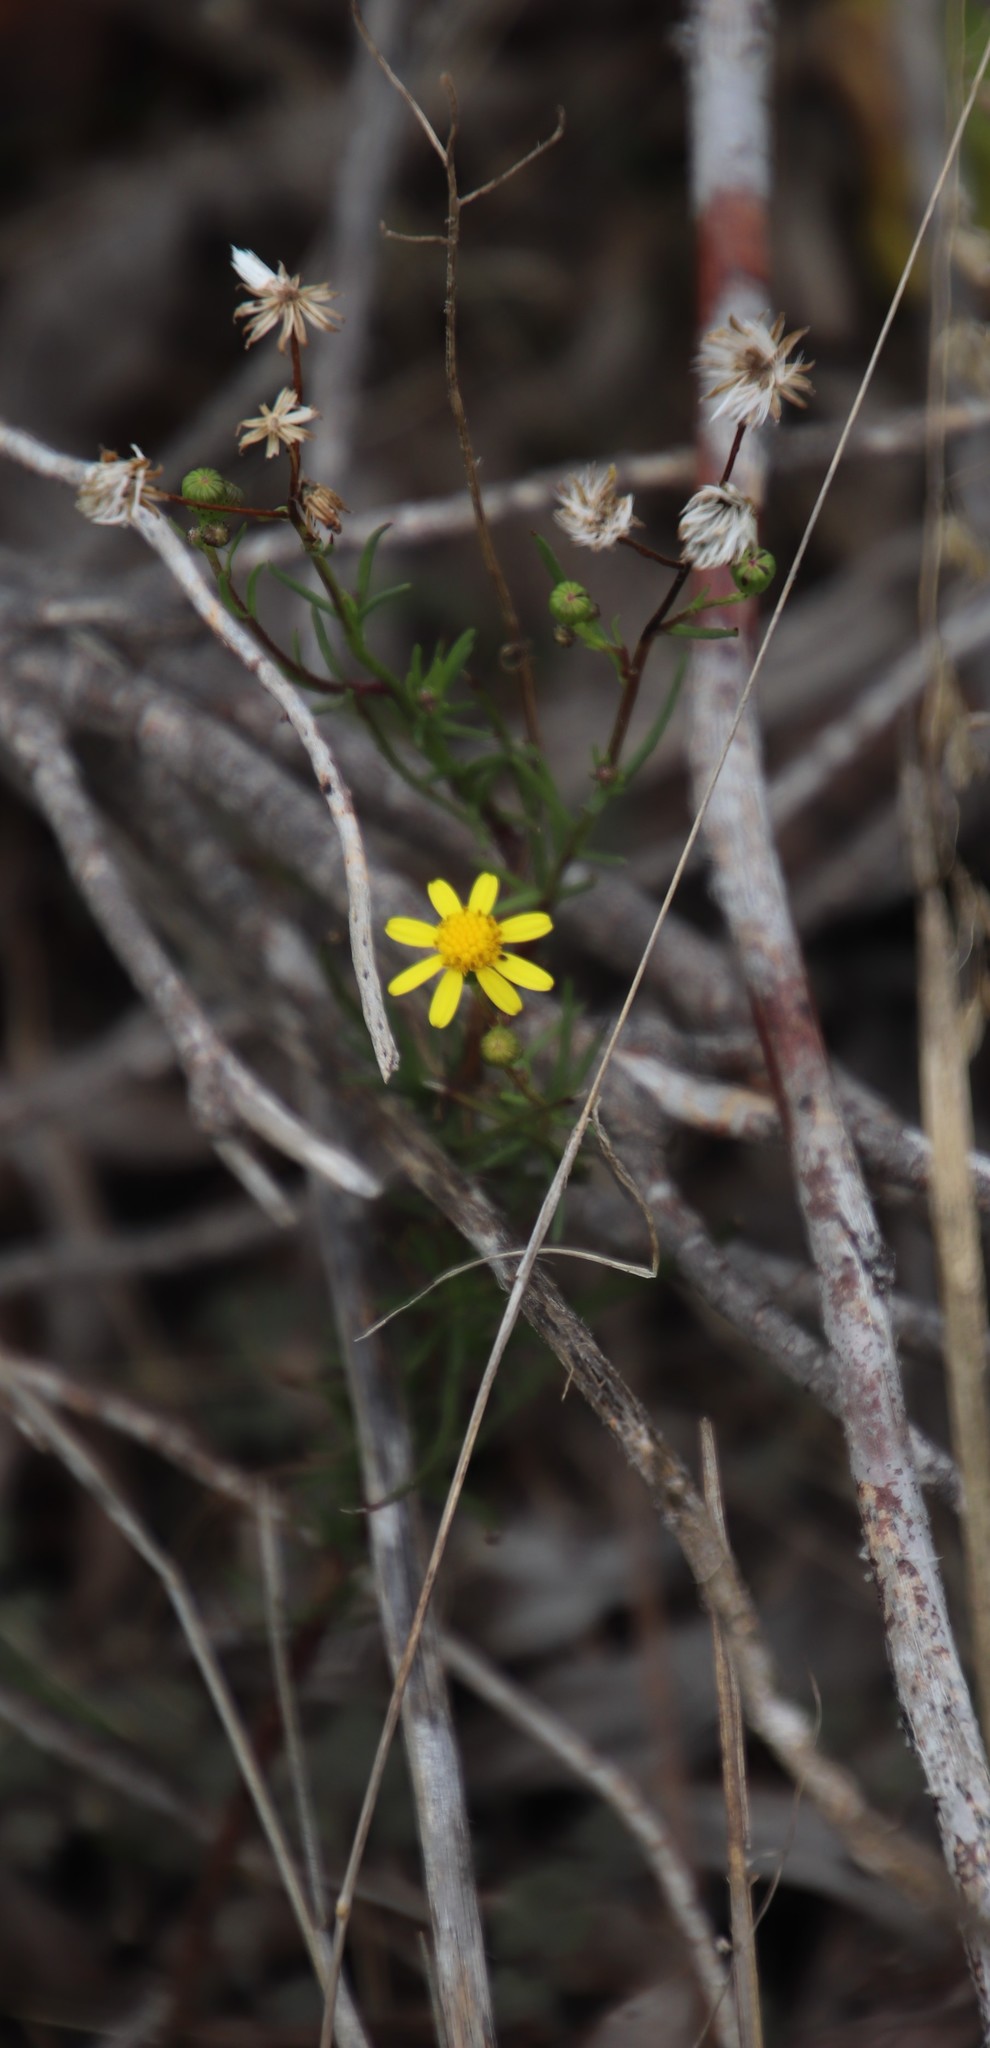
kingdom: Plantae
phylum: Tracheophyta
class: Magnoliopsida
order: Asterales
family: Asteraceae
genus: Senecio
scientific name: Senecio burchellii
